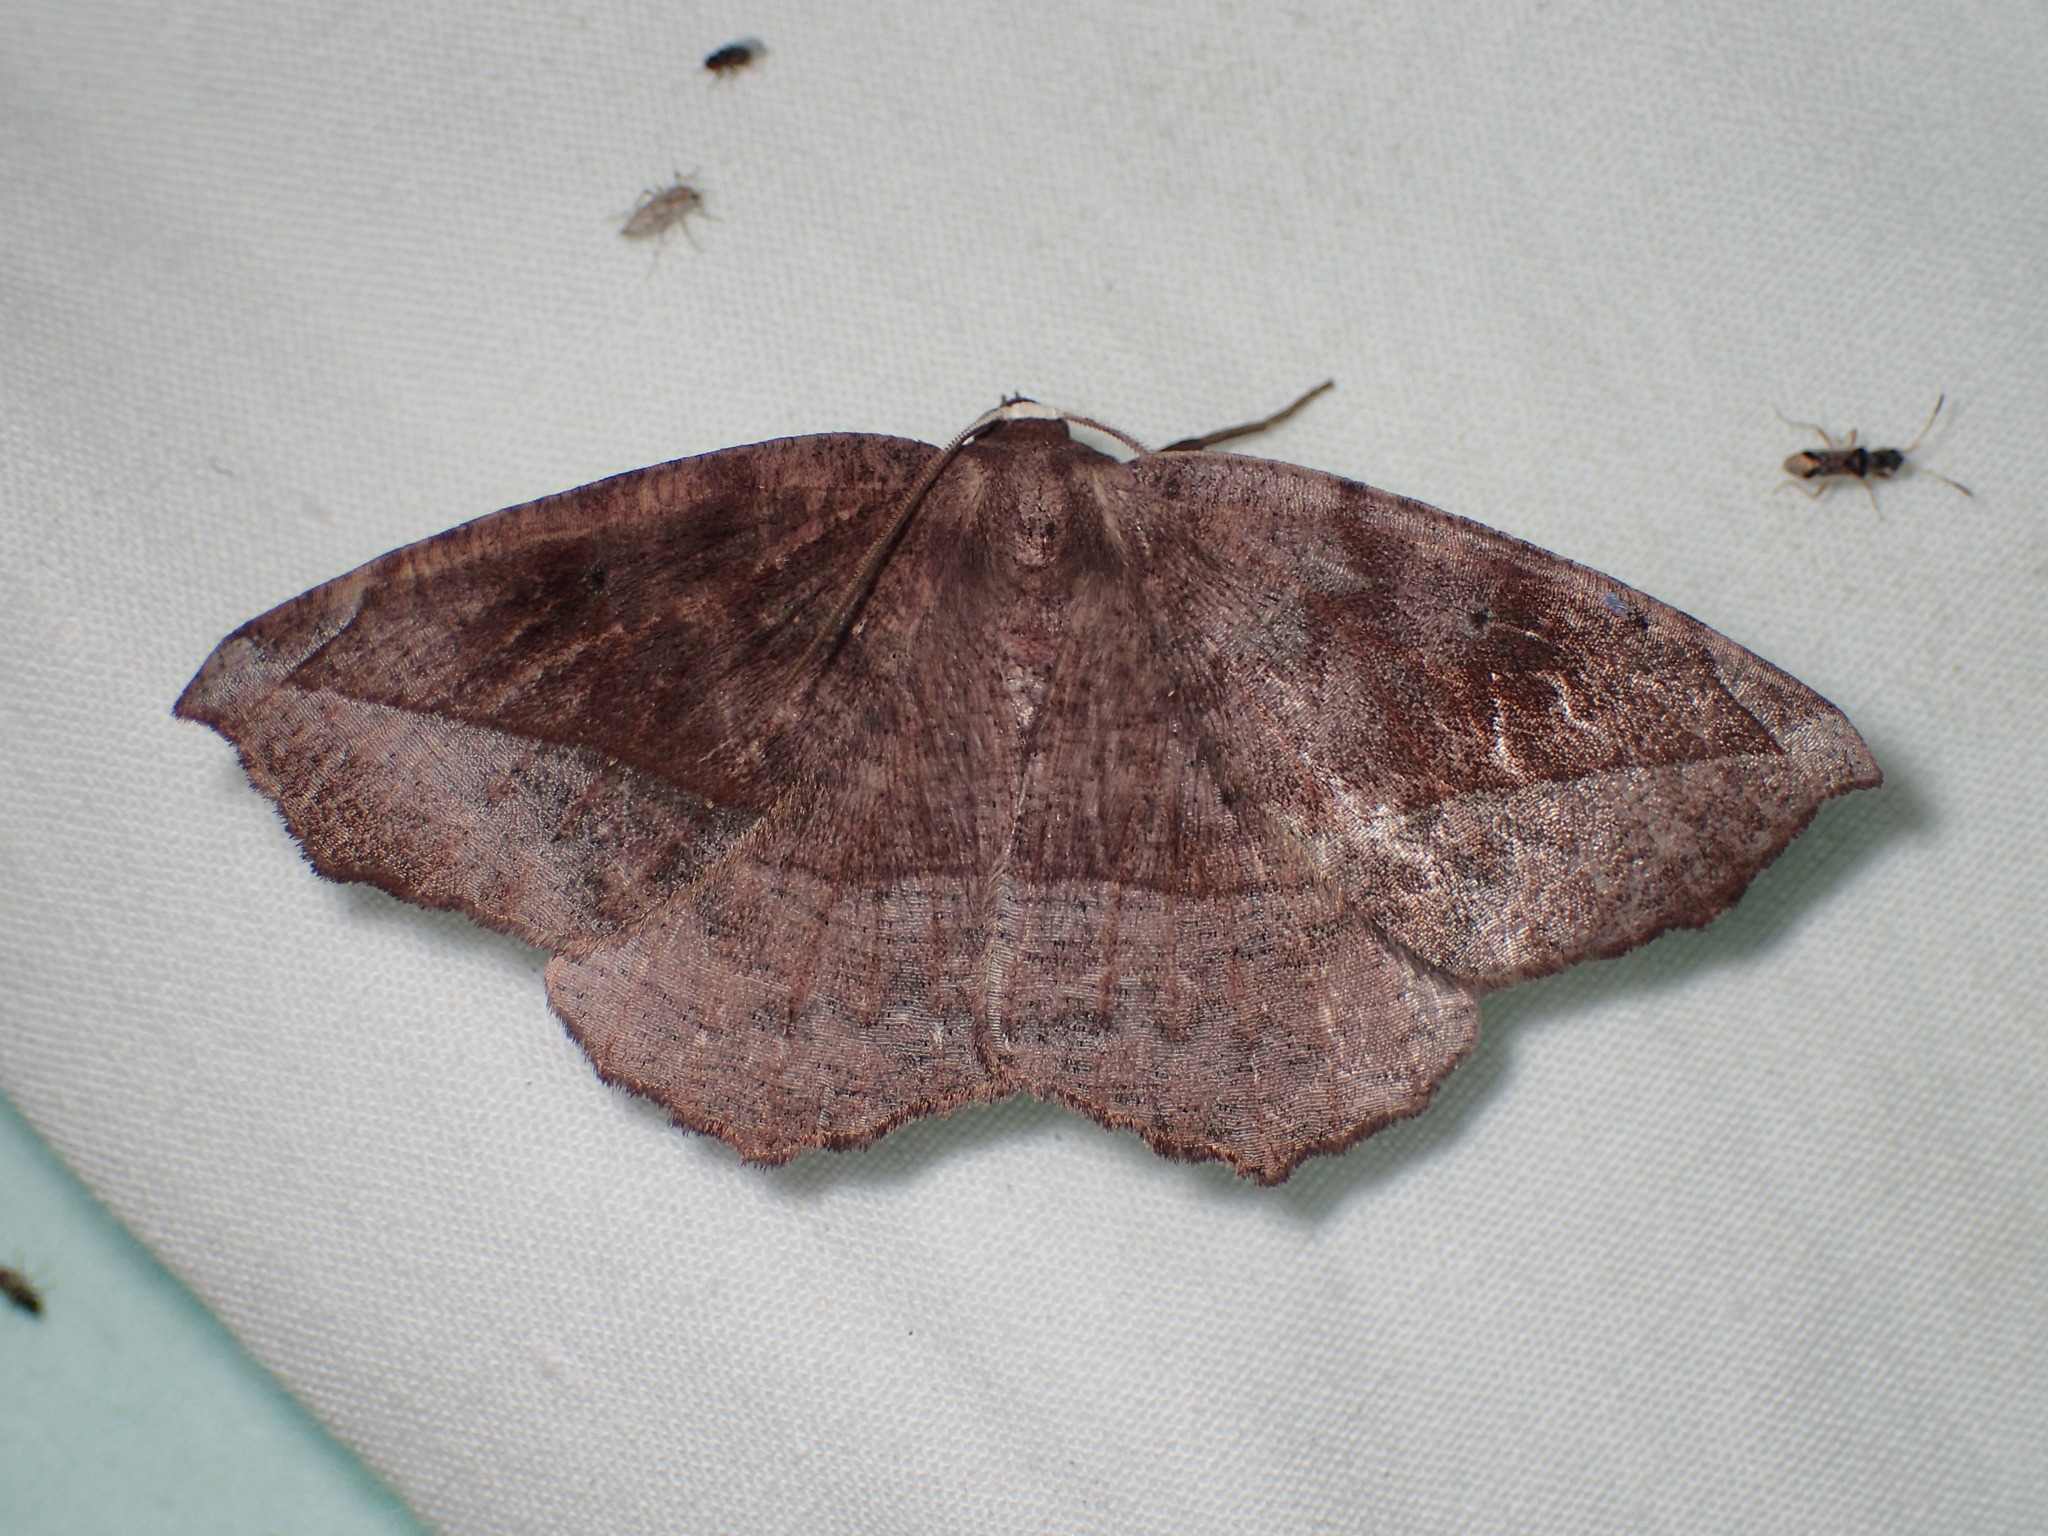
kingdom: Animalia
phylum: Arthropoda
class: Insecta
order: Lepidoptera
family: Geometridae
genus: Eutrapela
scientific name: Eutrapela clemataria
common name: Curved-toothed geometer
